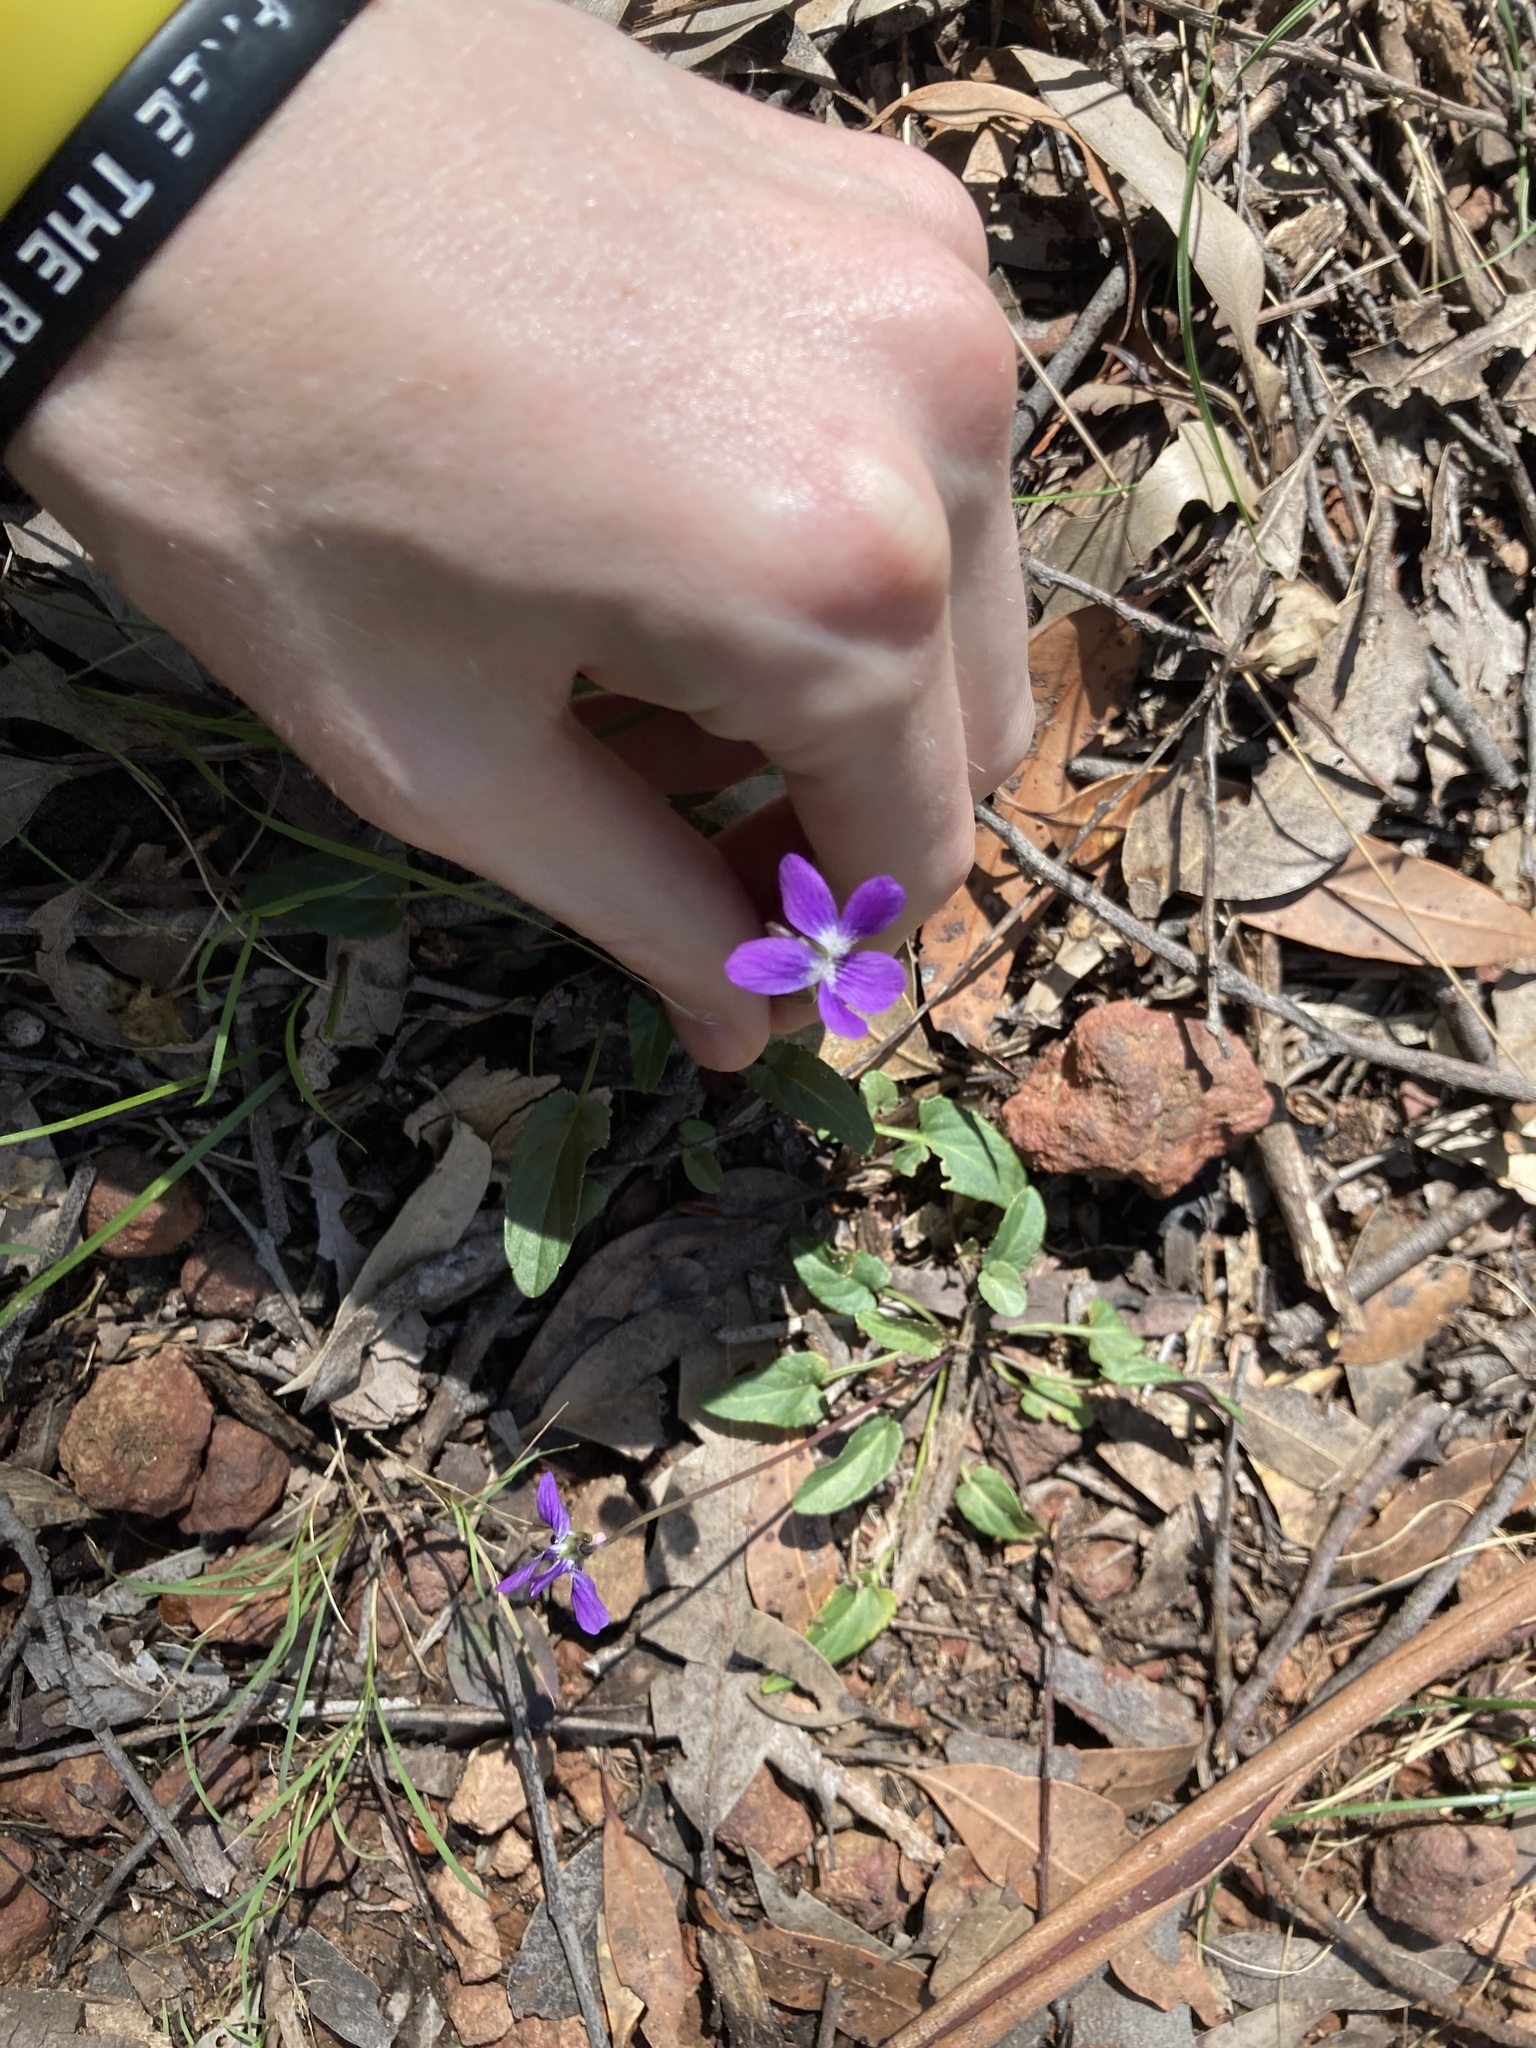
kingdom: Plantae
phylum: Tracheophyta
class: Magnoliopsida
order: Malpighiales
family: Violaceae
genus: Viola
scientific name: Viola betonicifolia
